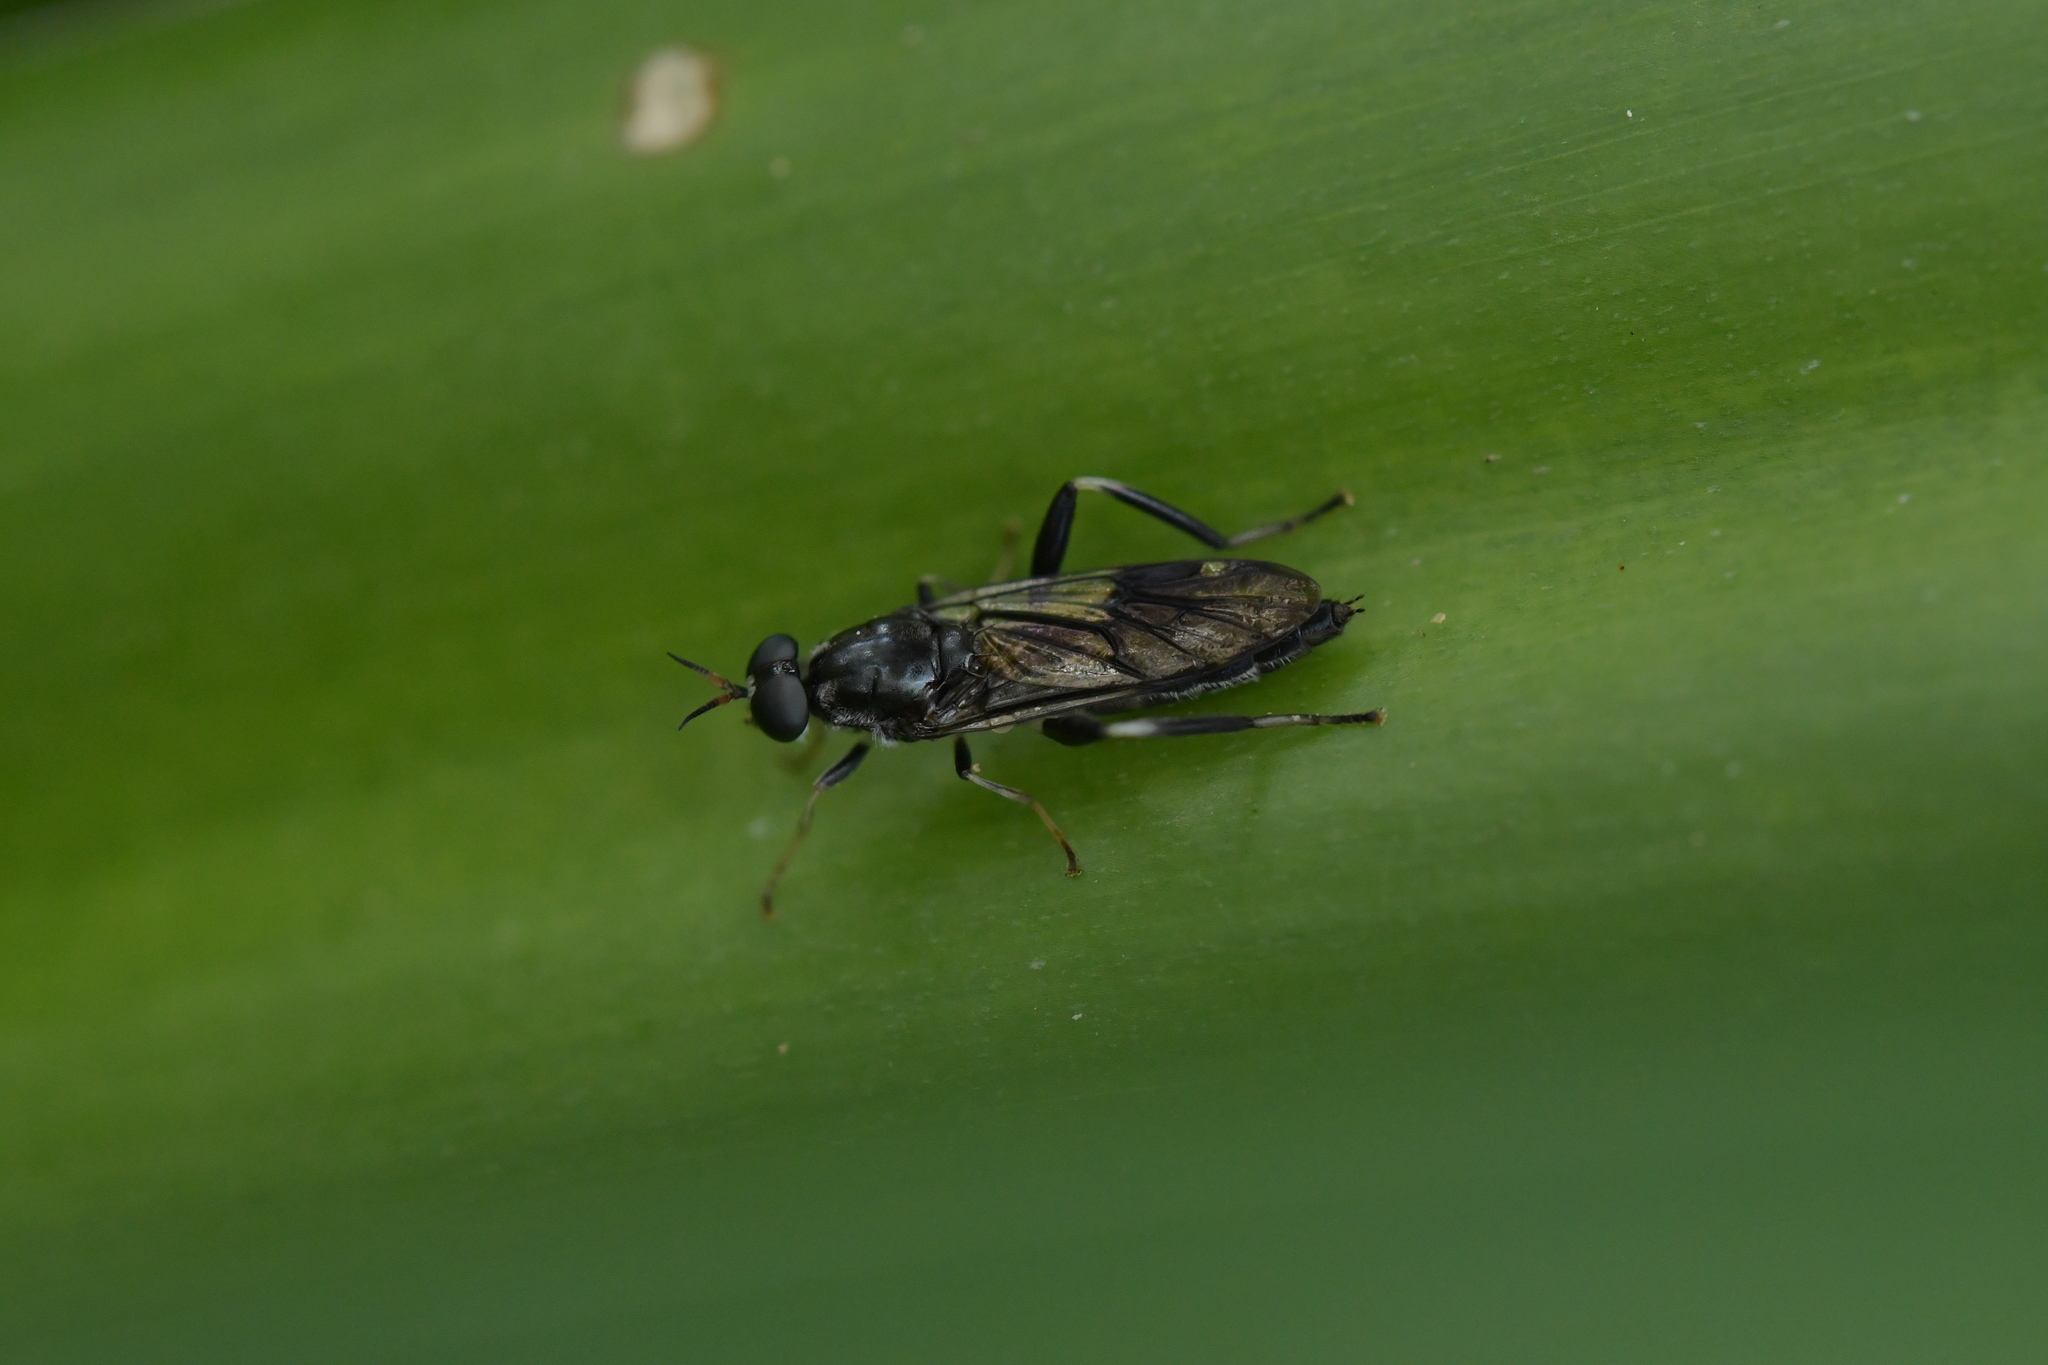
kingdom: Animalia
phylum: Arthropoda
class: Insecta
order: Diptera
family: Stratiomyidae
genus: Exaireta
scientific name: Exaireta spinigera
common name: Blue soldier fly
